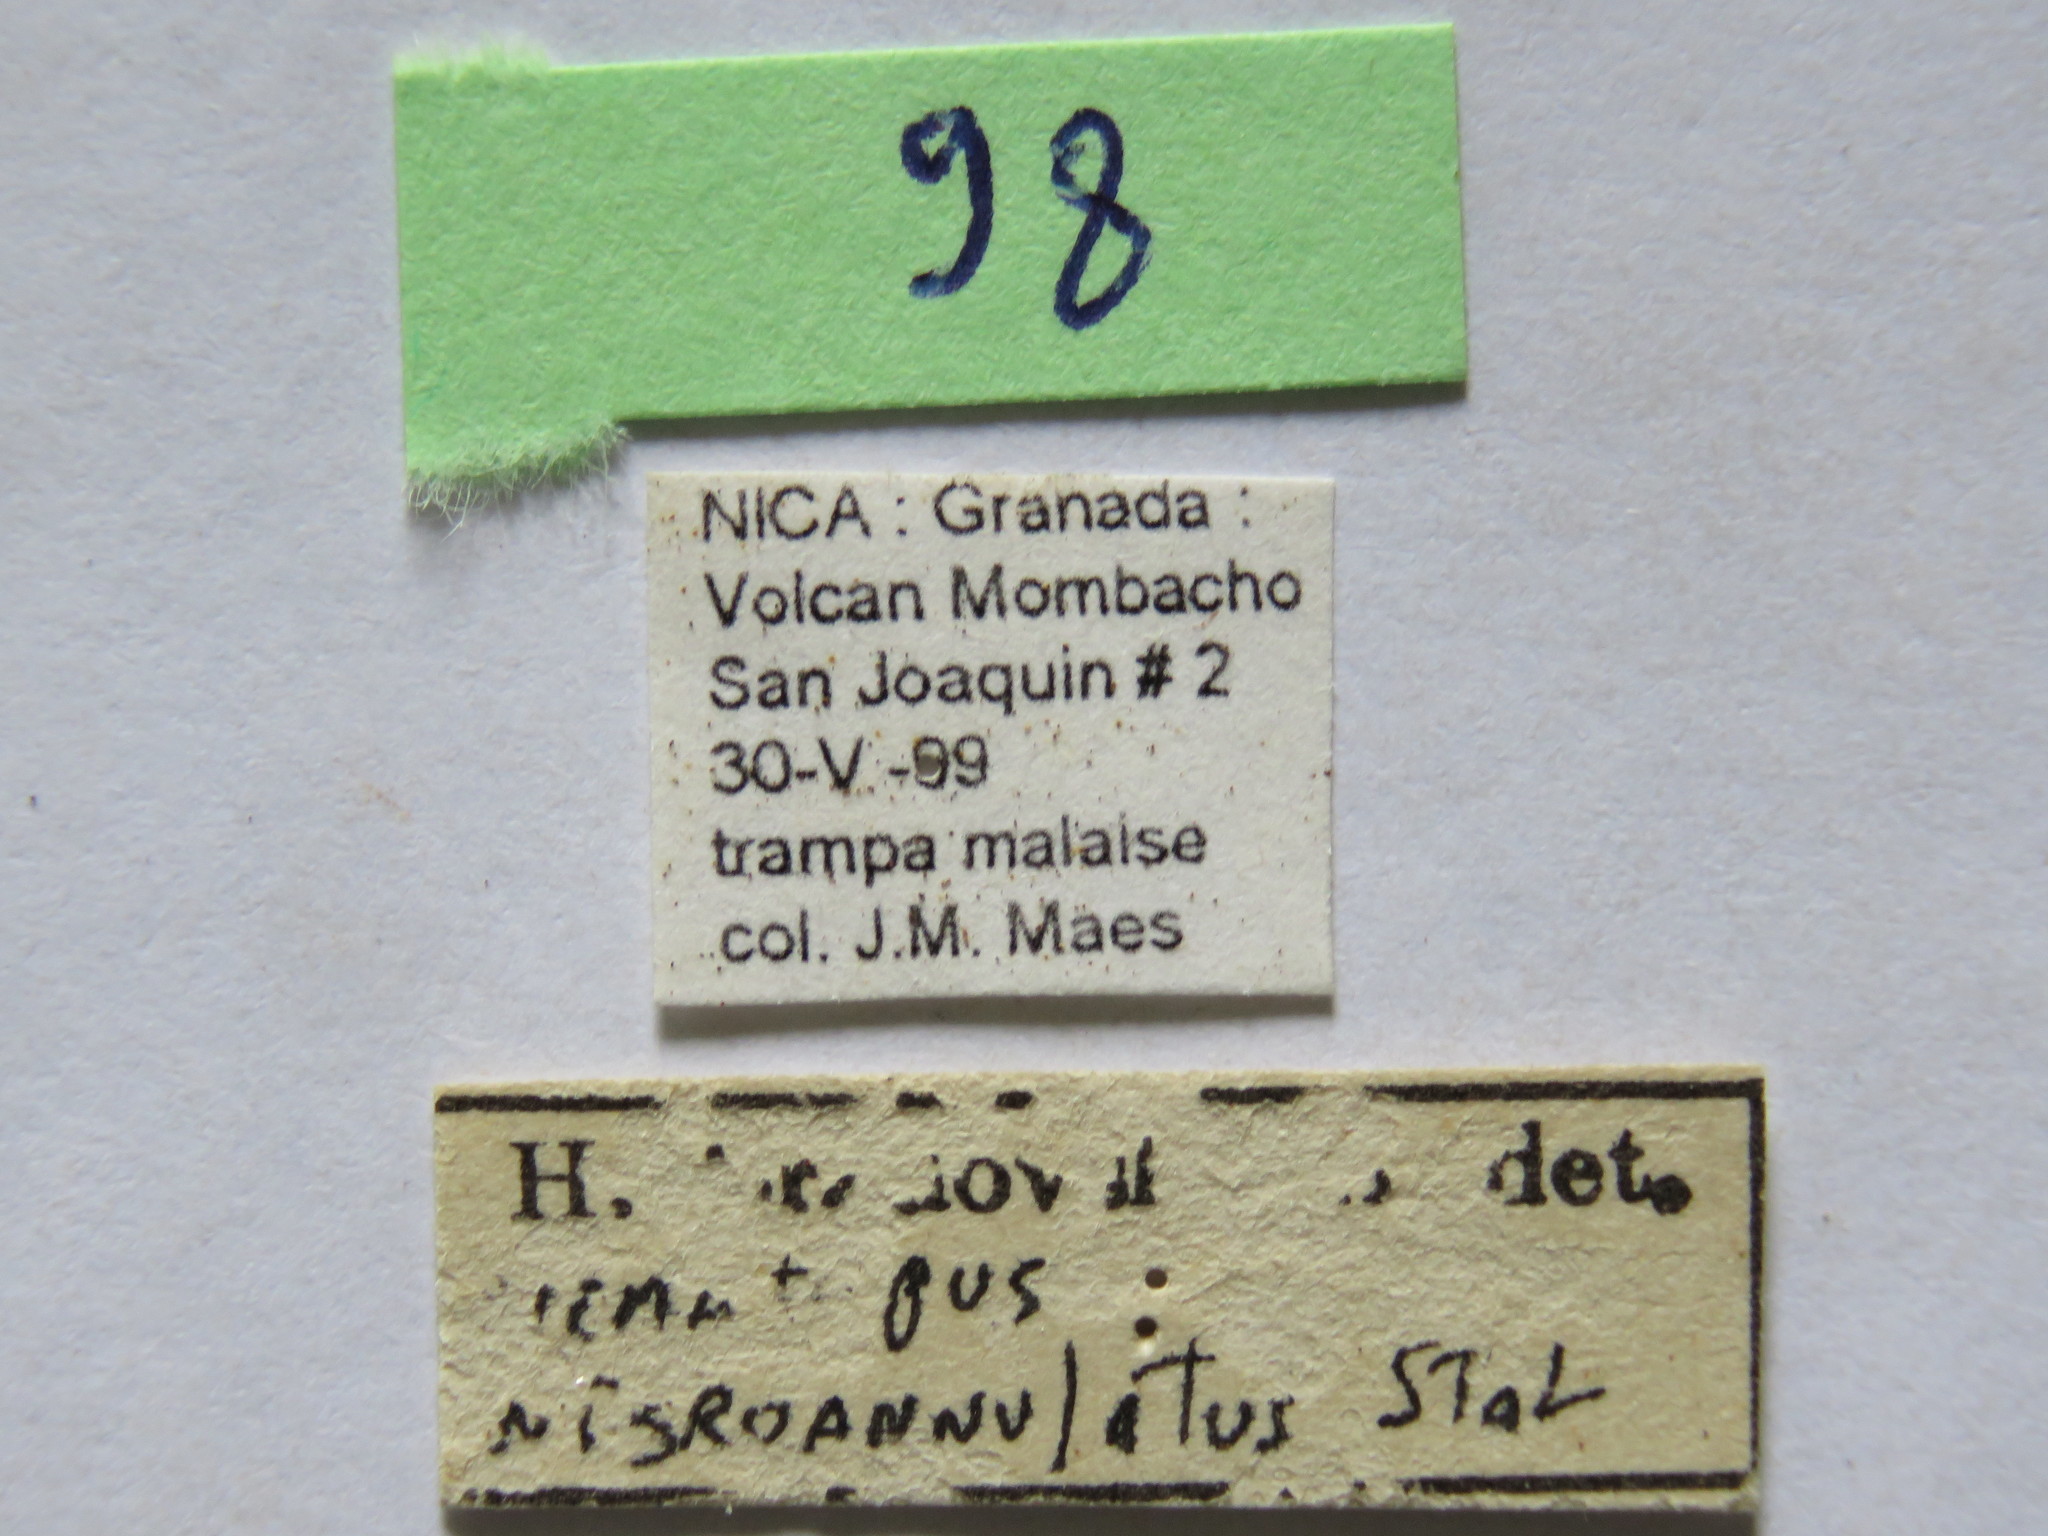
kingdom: Animalia
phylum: Arthropoda
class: Insecta
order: Hemiptera
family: Coreidae
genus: Nematopus
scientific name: Nematopus nigroannulatus
